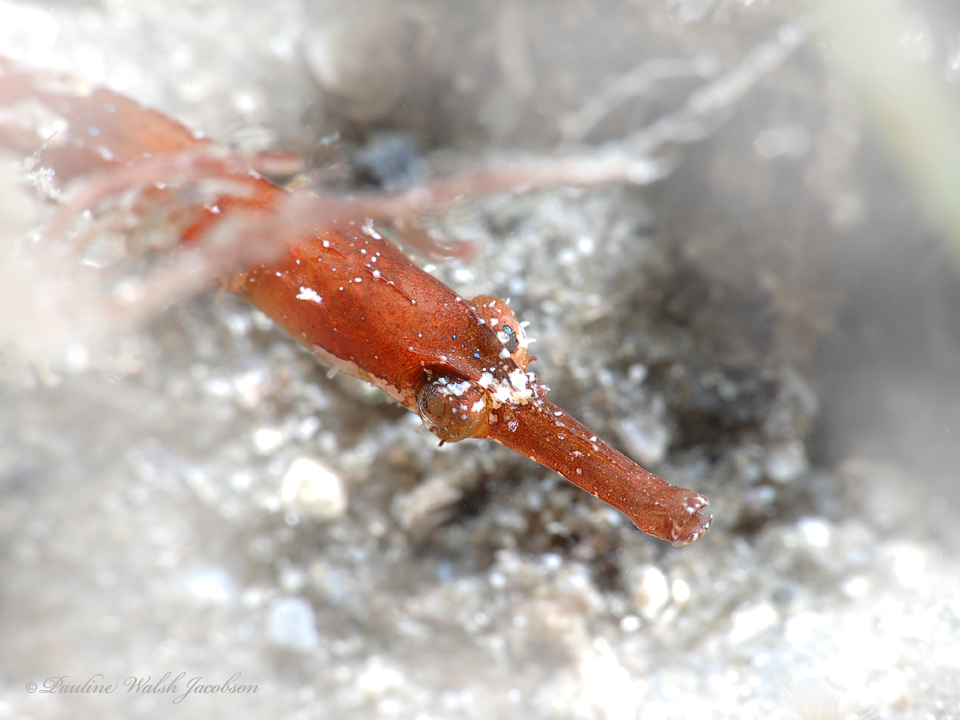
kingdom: Animalia
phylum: Chordata
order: Syngnathiformes
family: Syngnathidae
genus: Cosmocampus
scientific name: Cosmocampus elucens
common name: Poey's pipefish
